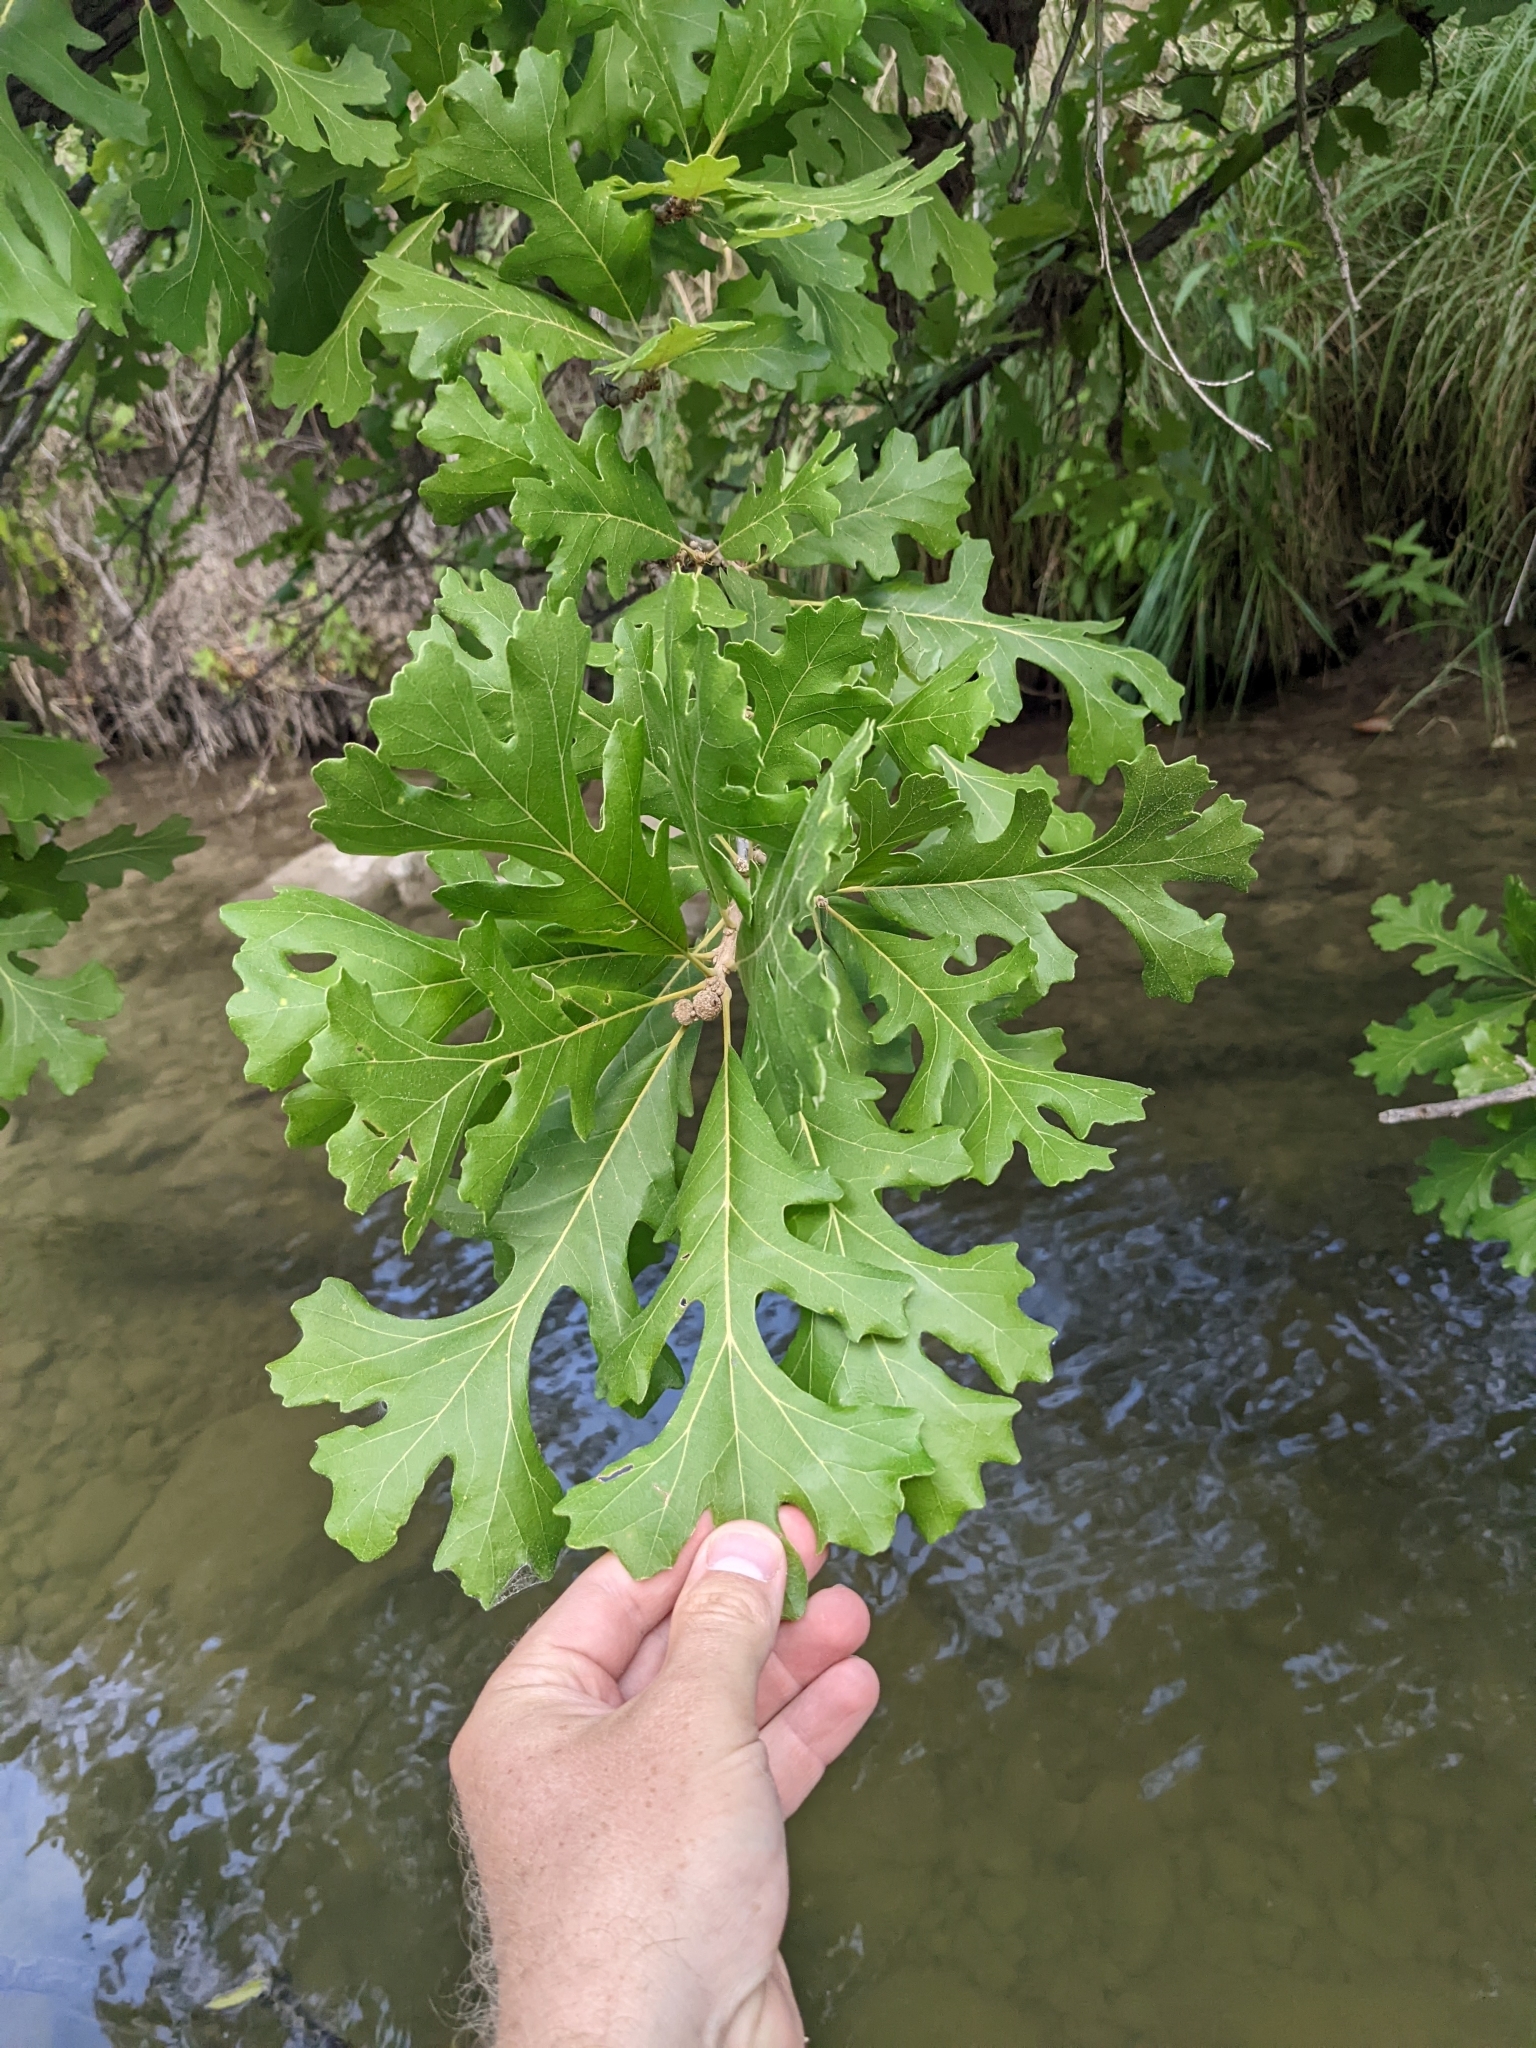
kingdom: Plantae
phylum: Tracheophyta
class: Magnoliopsida
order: Fagales
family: Fagaceae
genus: Quercus
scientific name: Quercus macrocarpa
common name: Bur oak
